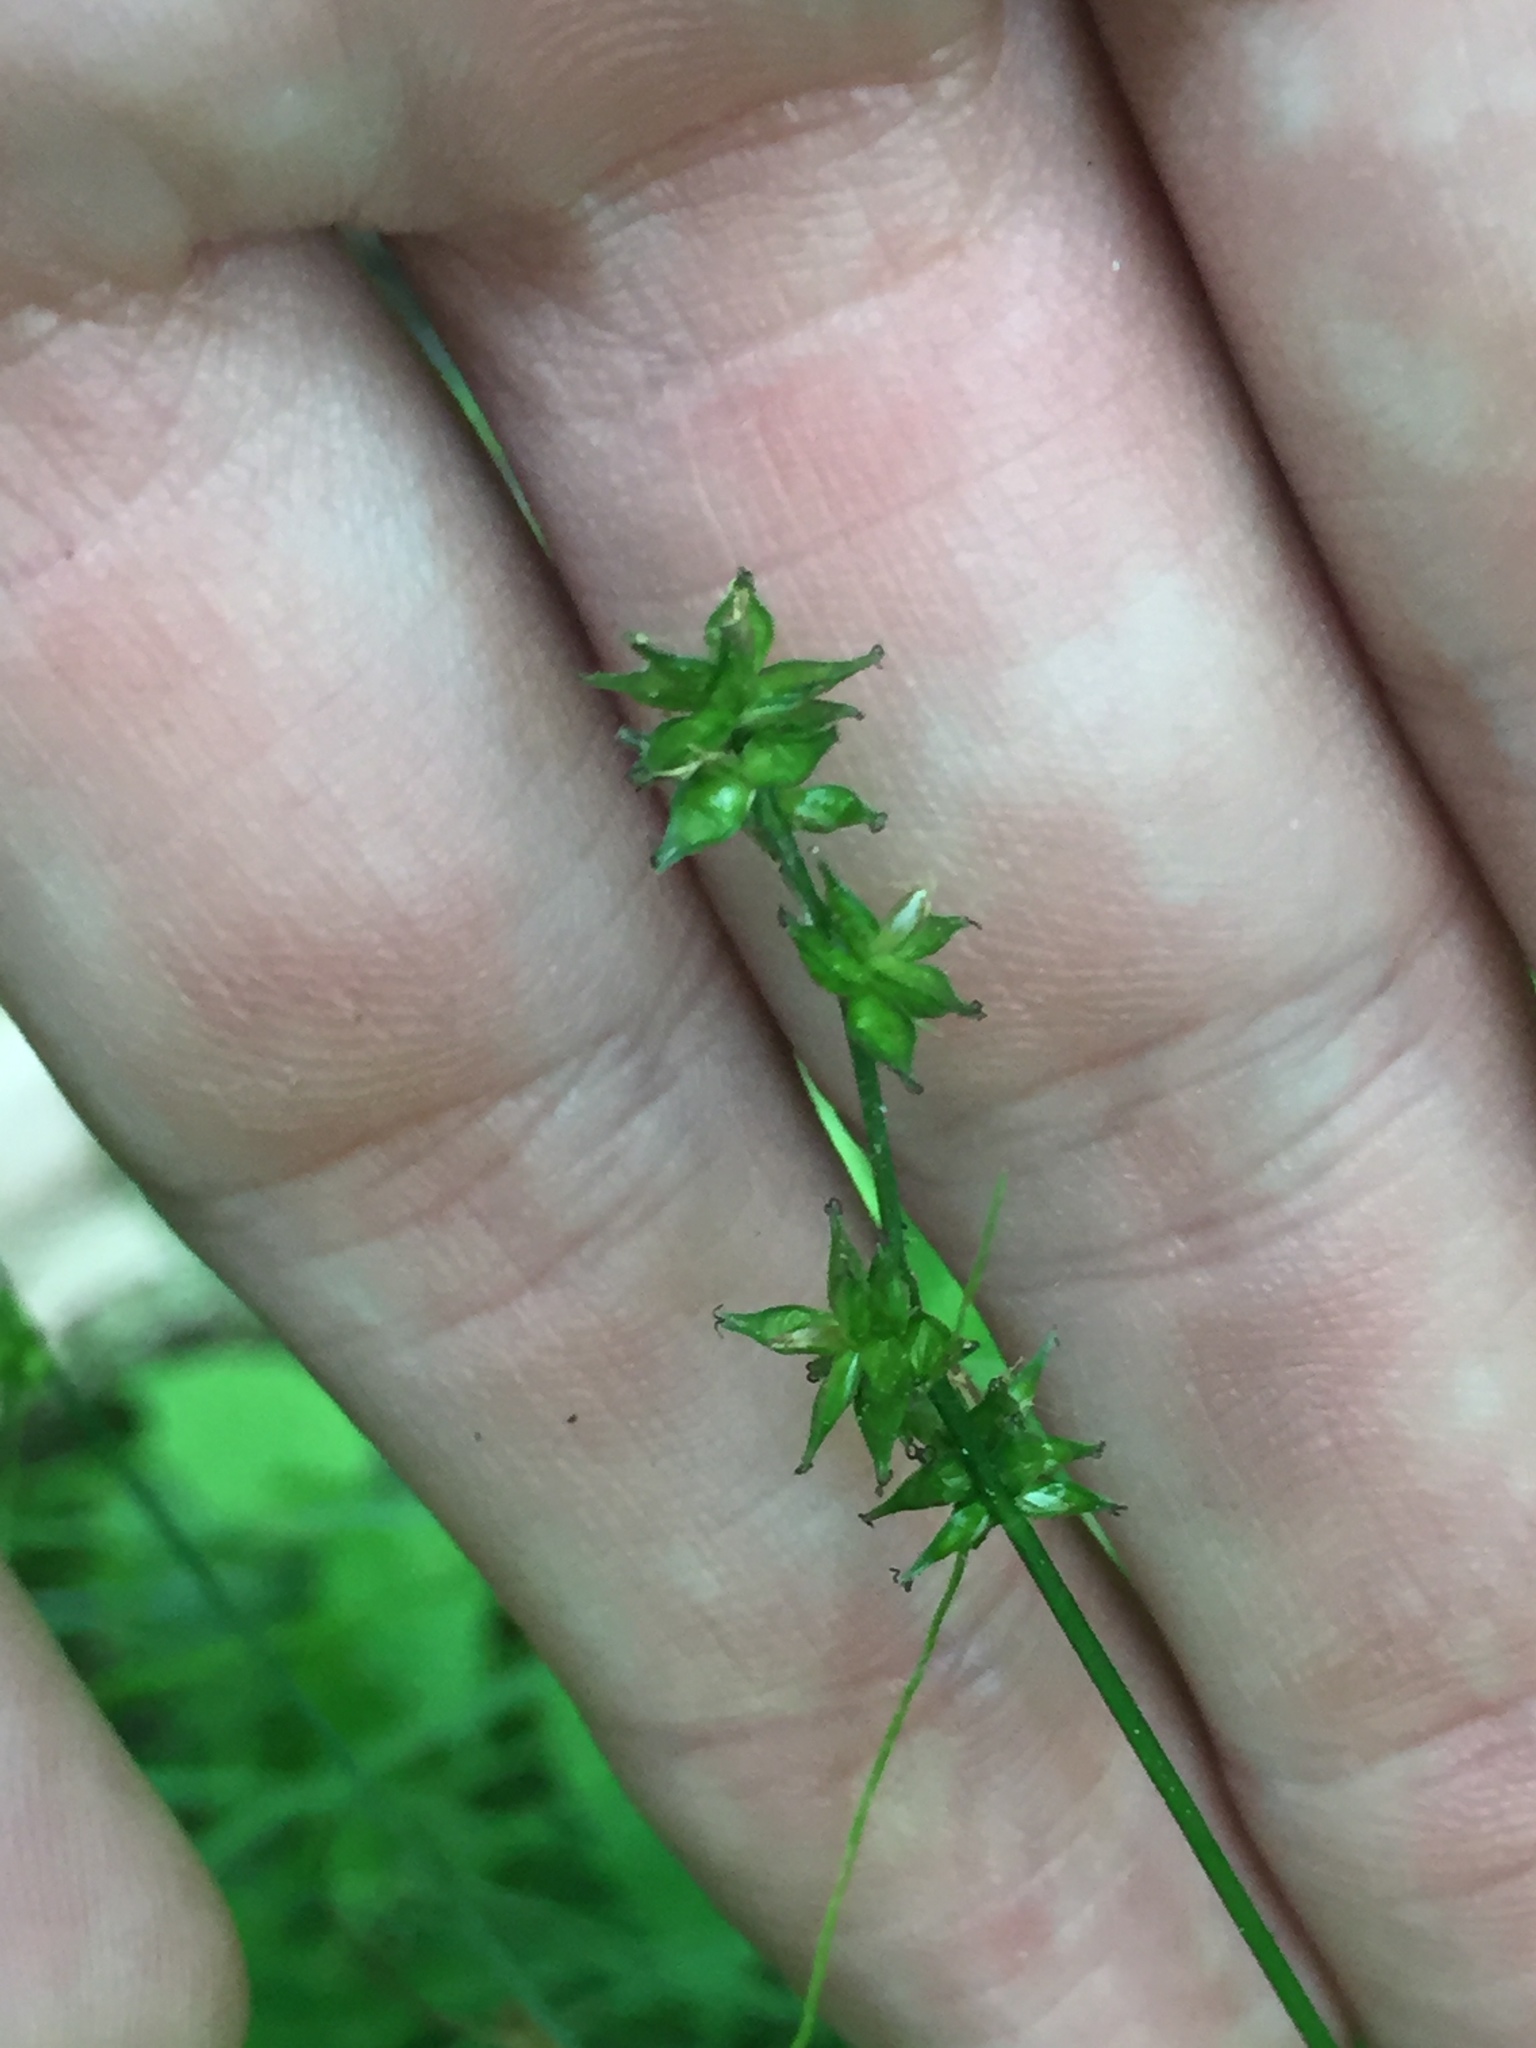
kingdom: Plantae
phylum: Tracheophyta
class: Liliopsida
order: Poales
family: Cyperaceae
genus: Carex
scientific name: Carex rosea
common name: Curly-styled wood sedge
